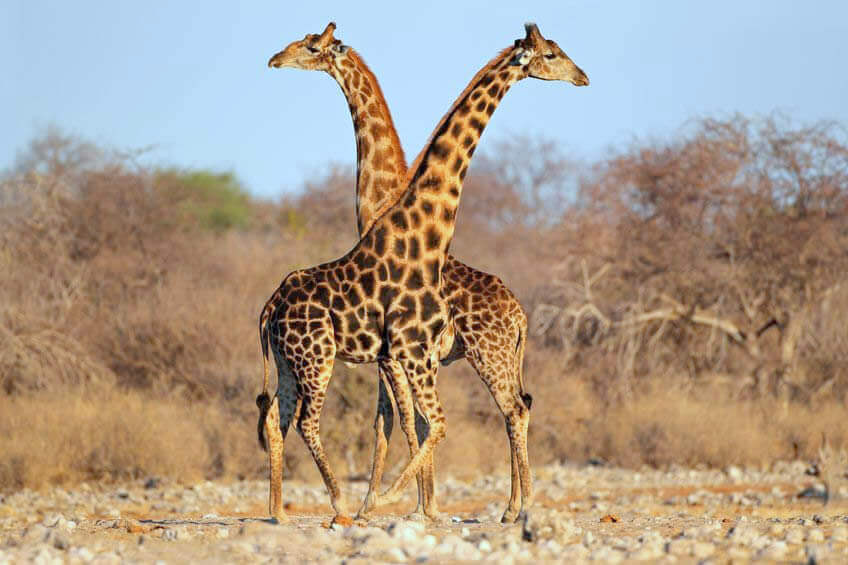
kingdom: Animalia
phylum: Chordata
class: Mammalia
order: Artiodactyla
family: Giraffidae
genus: Giraffa
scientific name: Giraffa giraffa
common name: Southern giraffe
